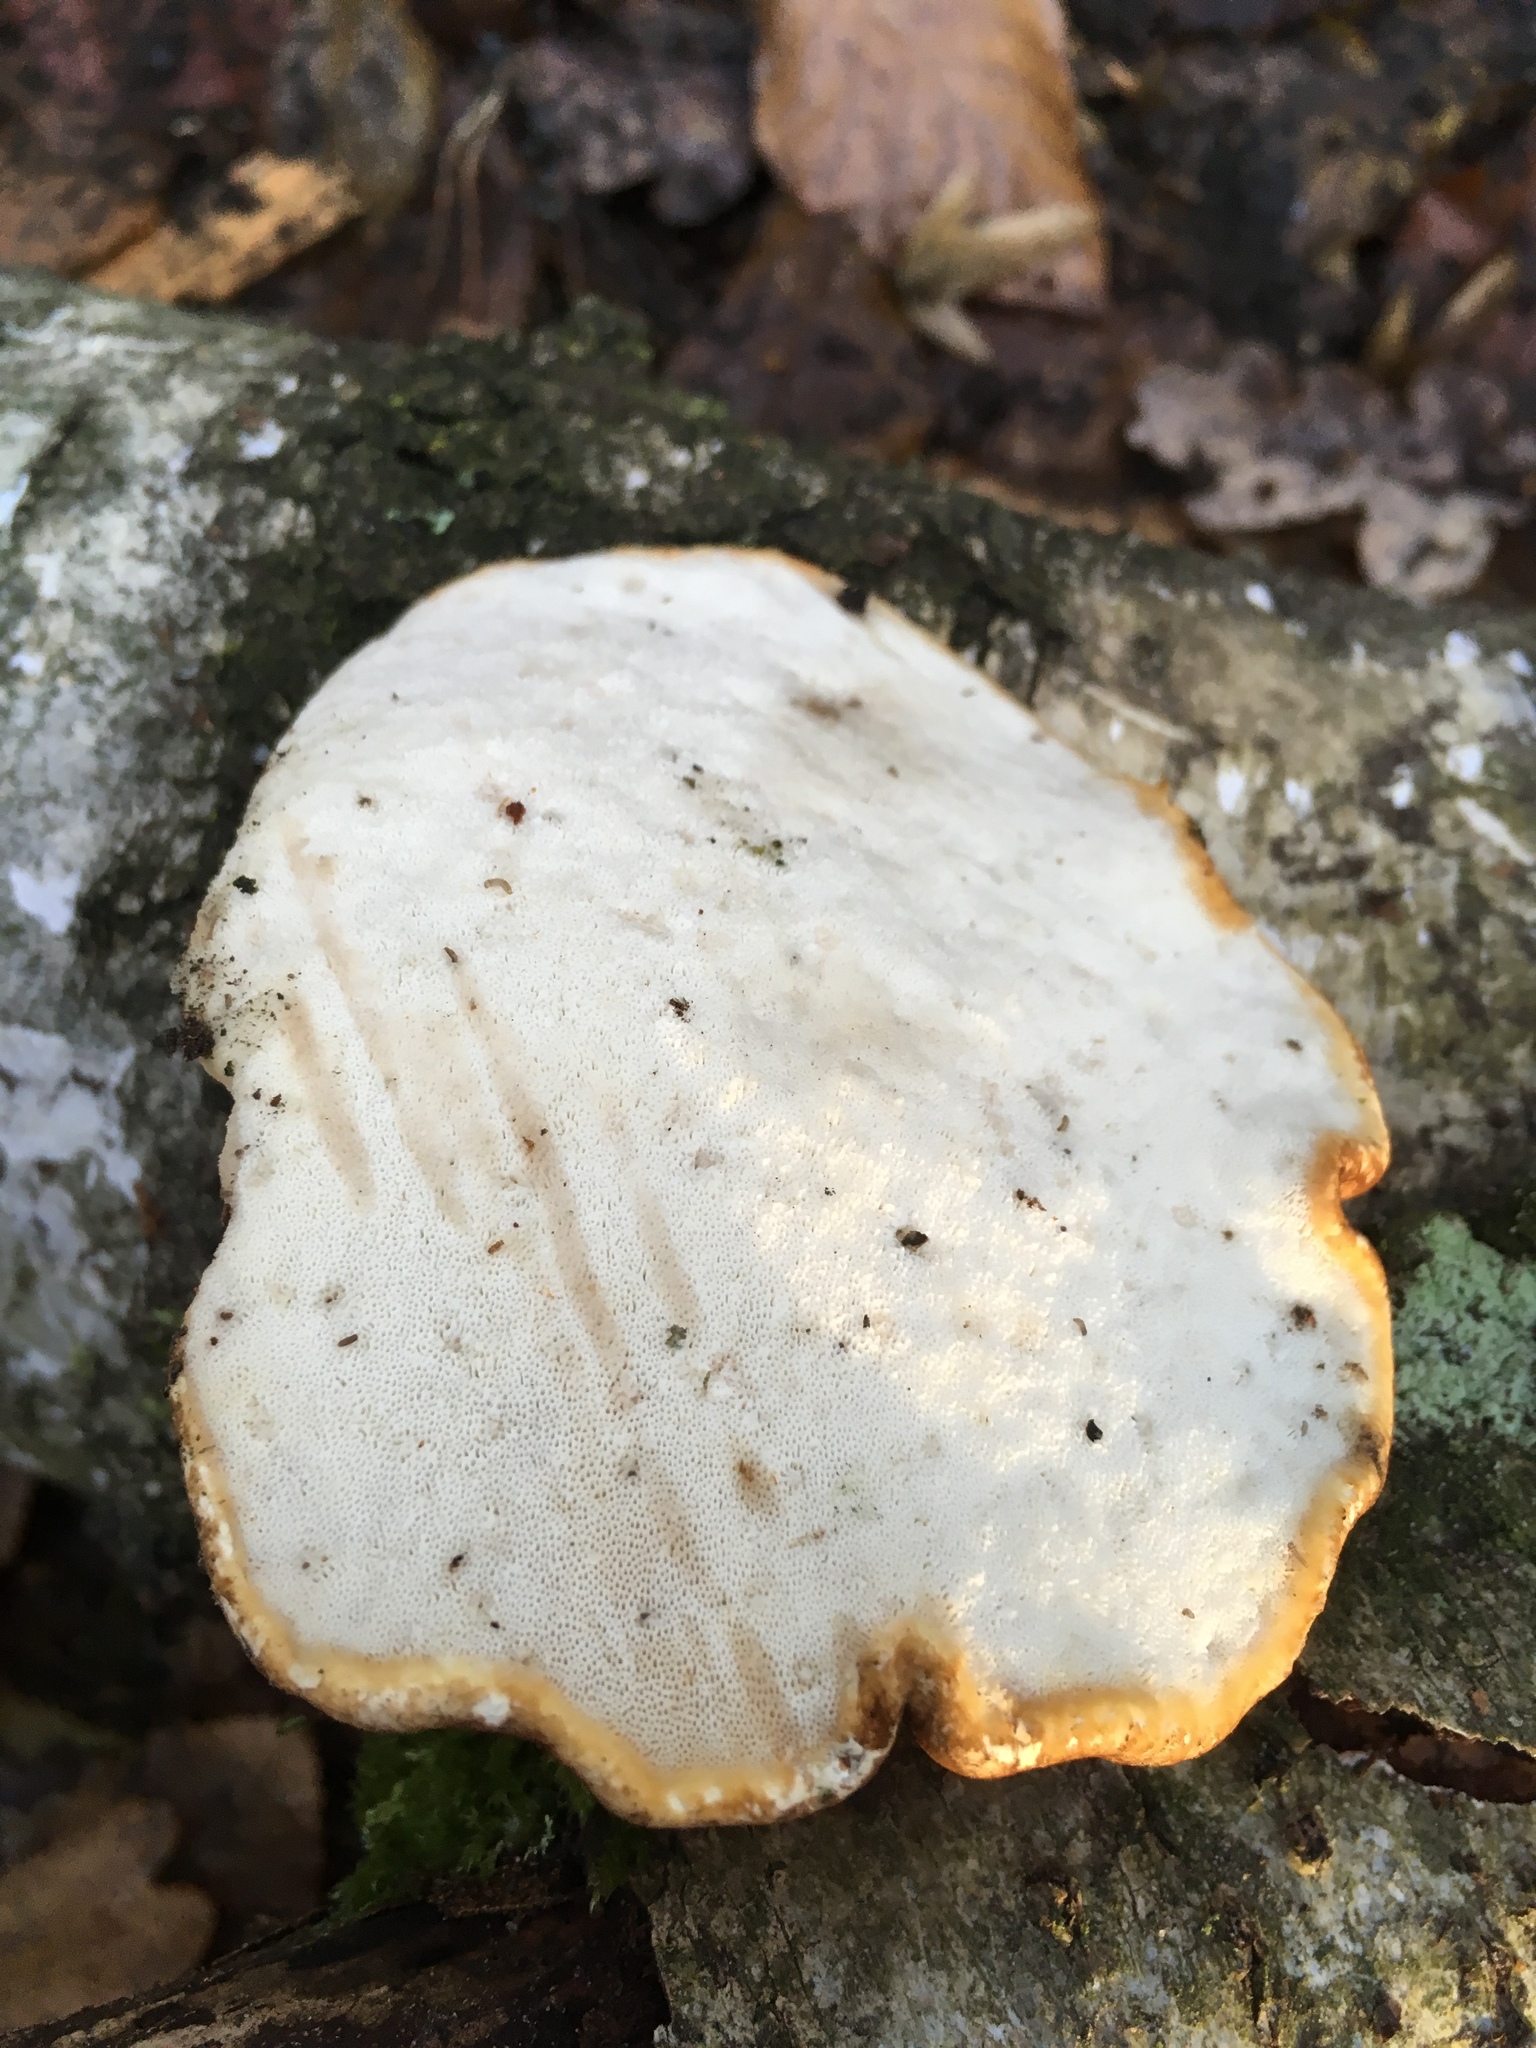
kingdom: Fungi
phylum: Basidiomycota
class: Agaricomycetes
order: Polyporales
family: Fomitopsidaceae
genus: Fomitopsis
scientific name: Fomitopsis betulina
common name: Birch polypore
